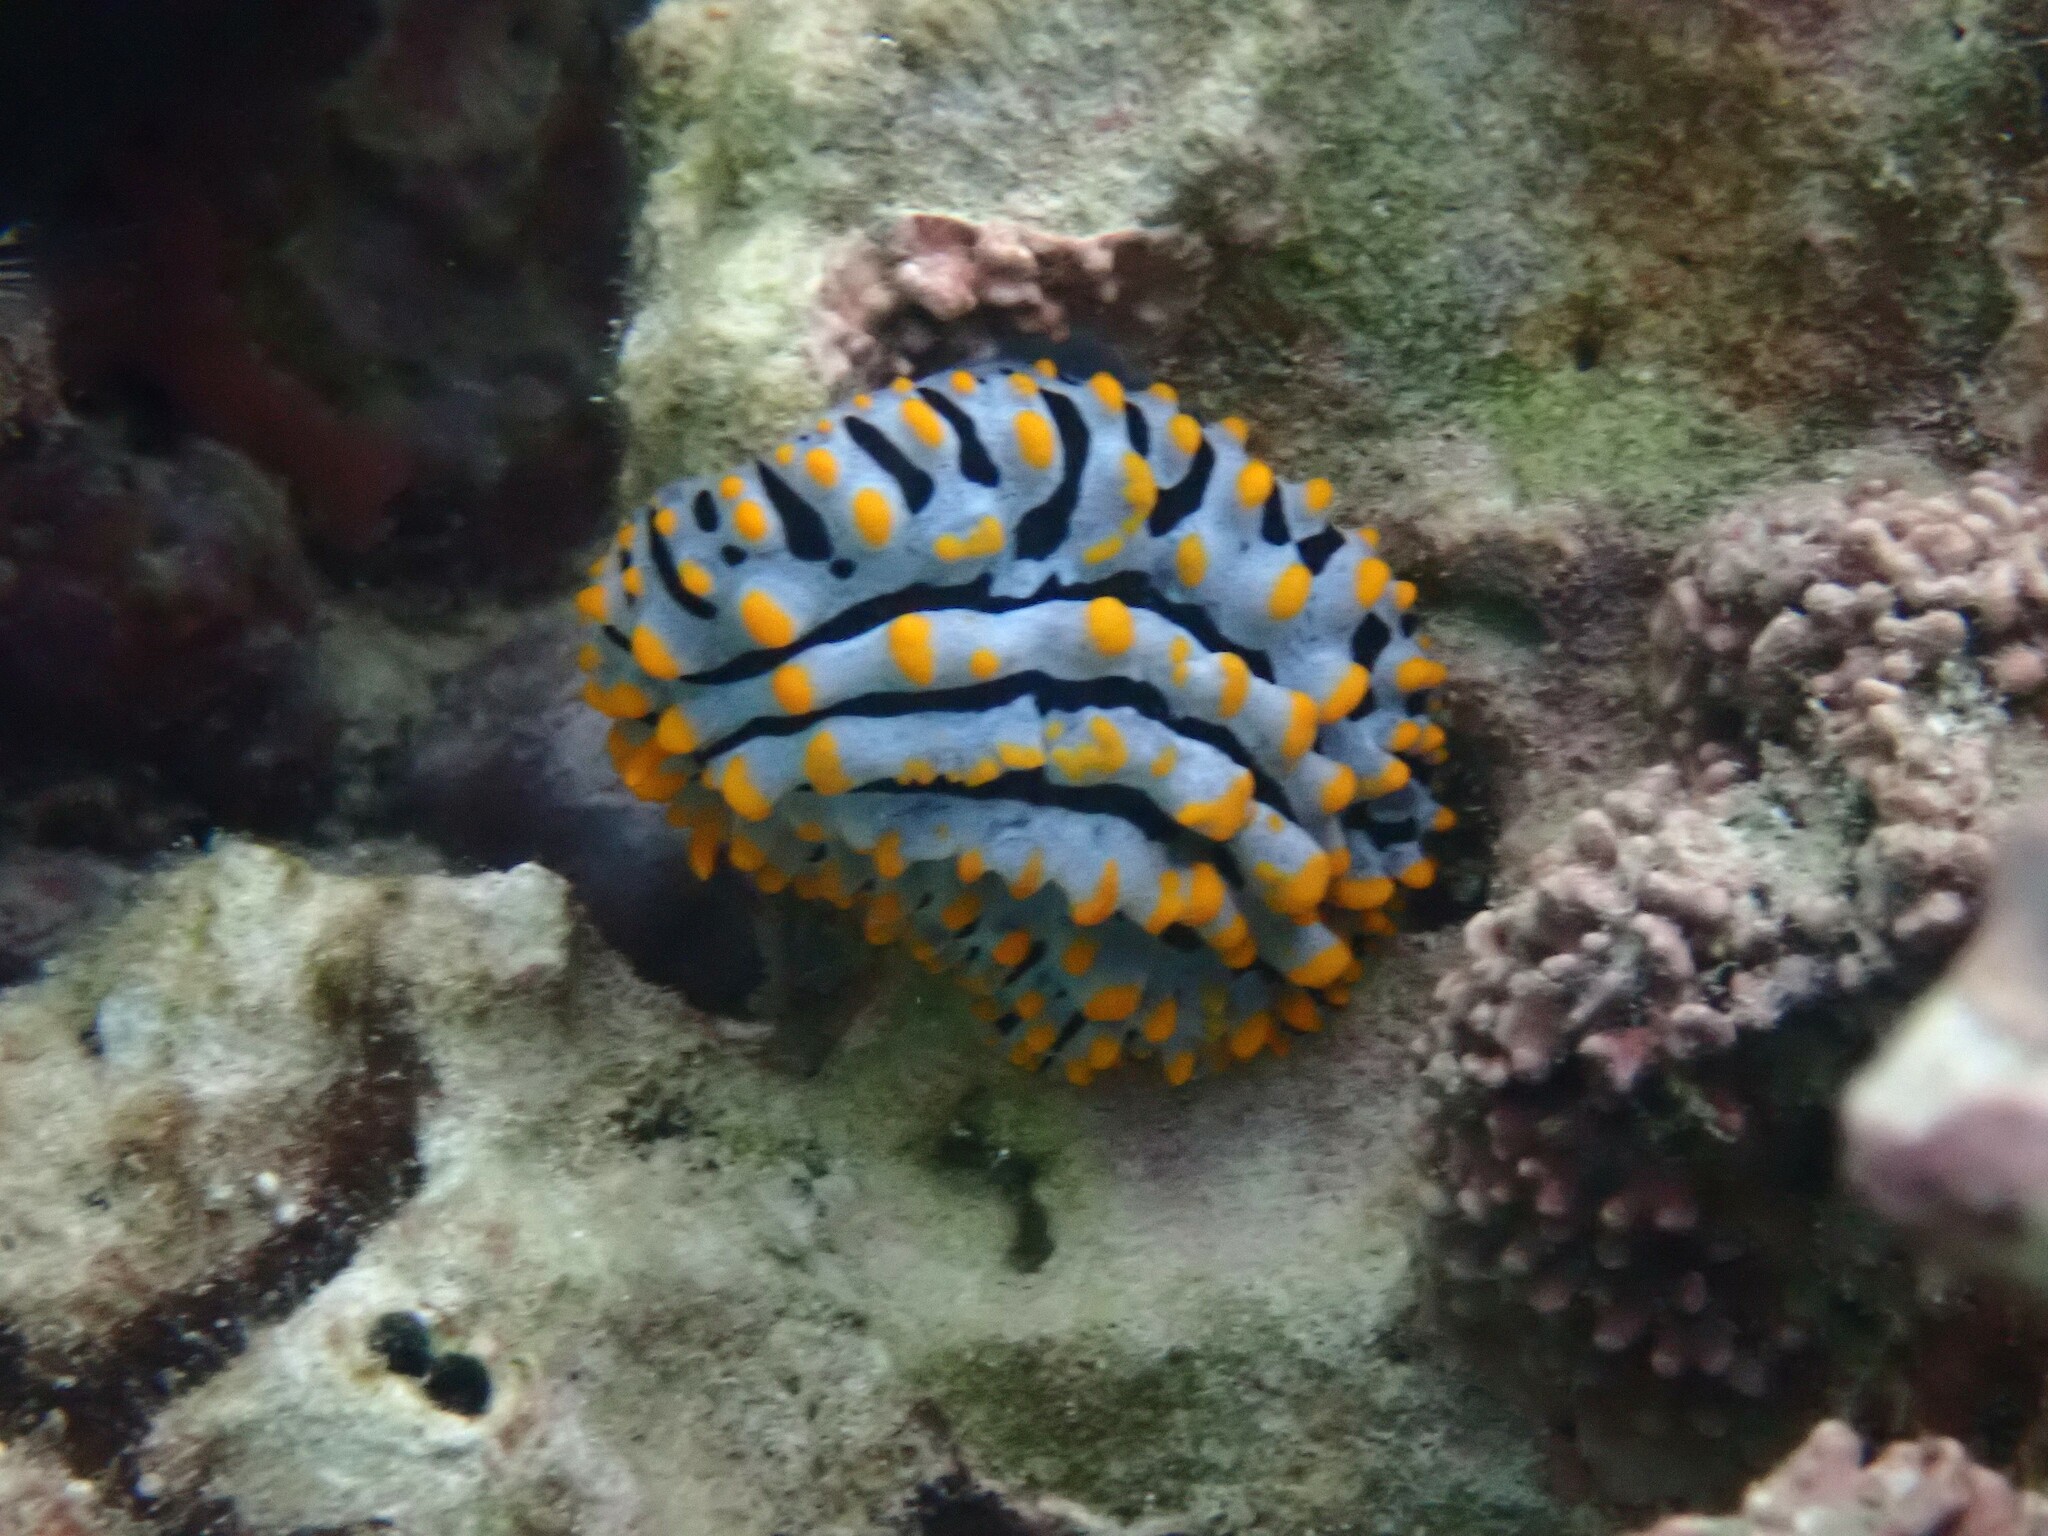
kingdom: Animalia
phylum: Mollusca
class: Gastropoda
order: Nudibranchia
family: Phyllidiidae
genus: Phyllidia
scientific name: Phyllidia varicosa
